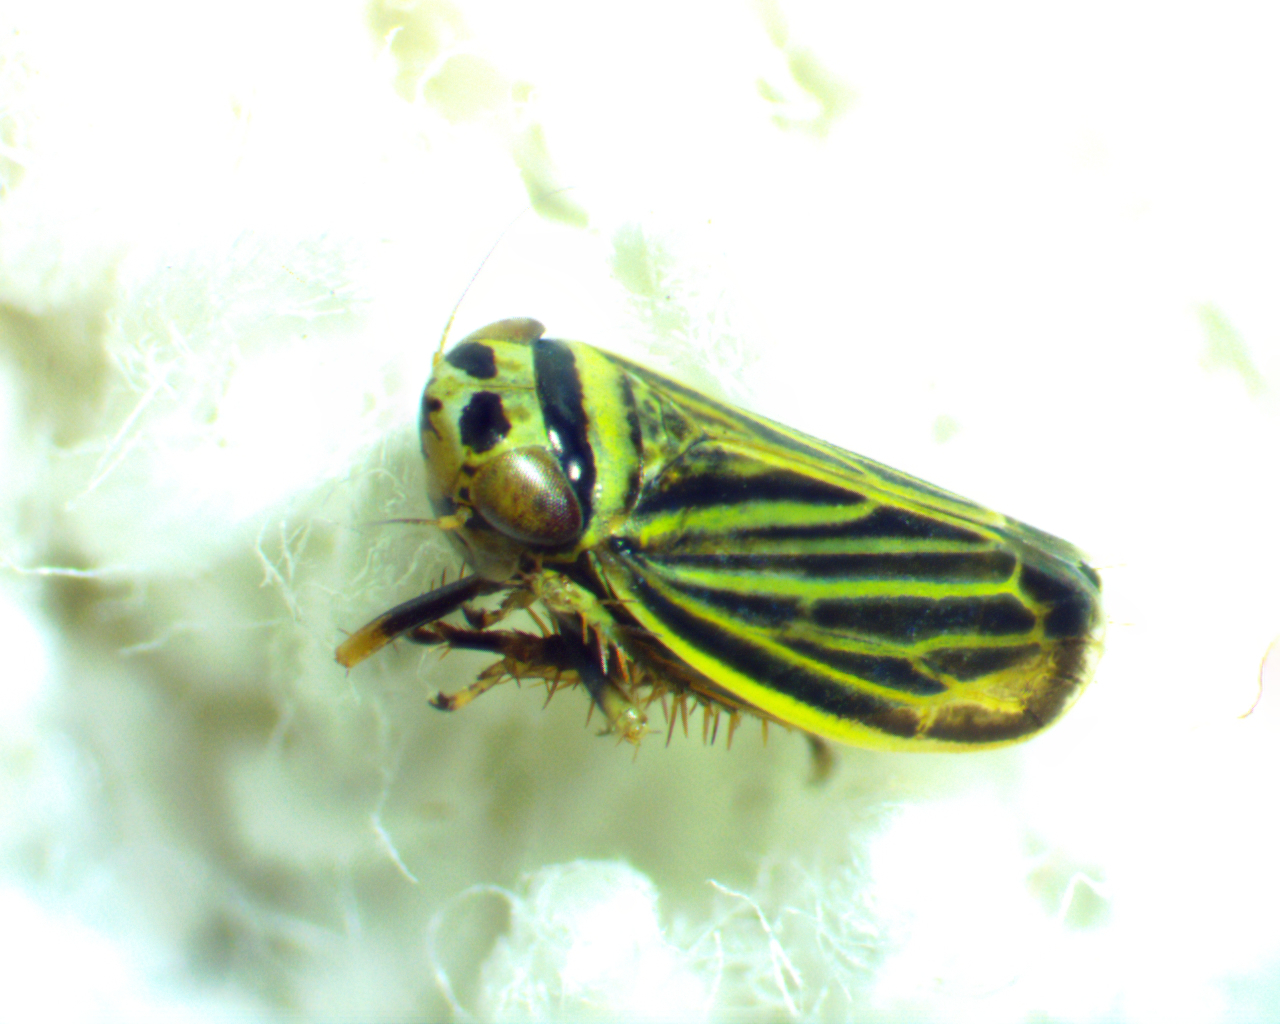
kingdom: Animalia
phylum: Arthropoda
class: Insecta
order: Hemiptera
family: Cicadellidae
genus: Amblysellus
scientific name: Amblysellus curtisii
